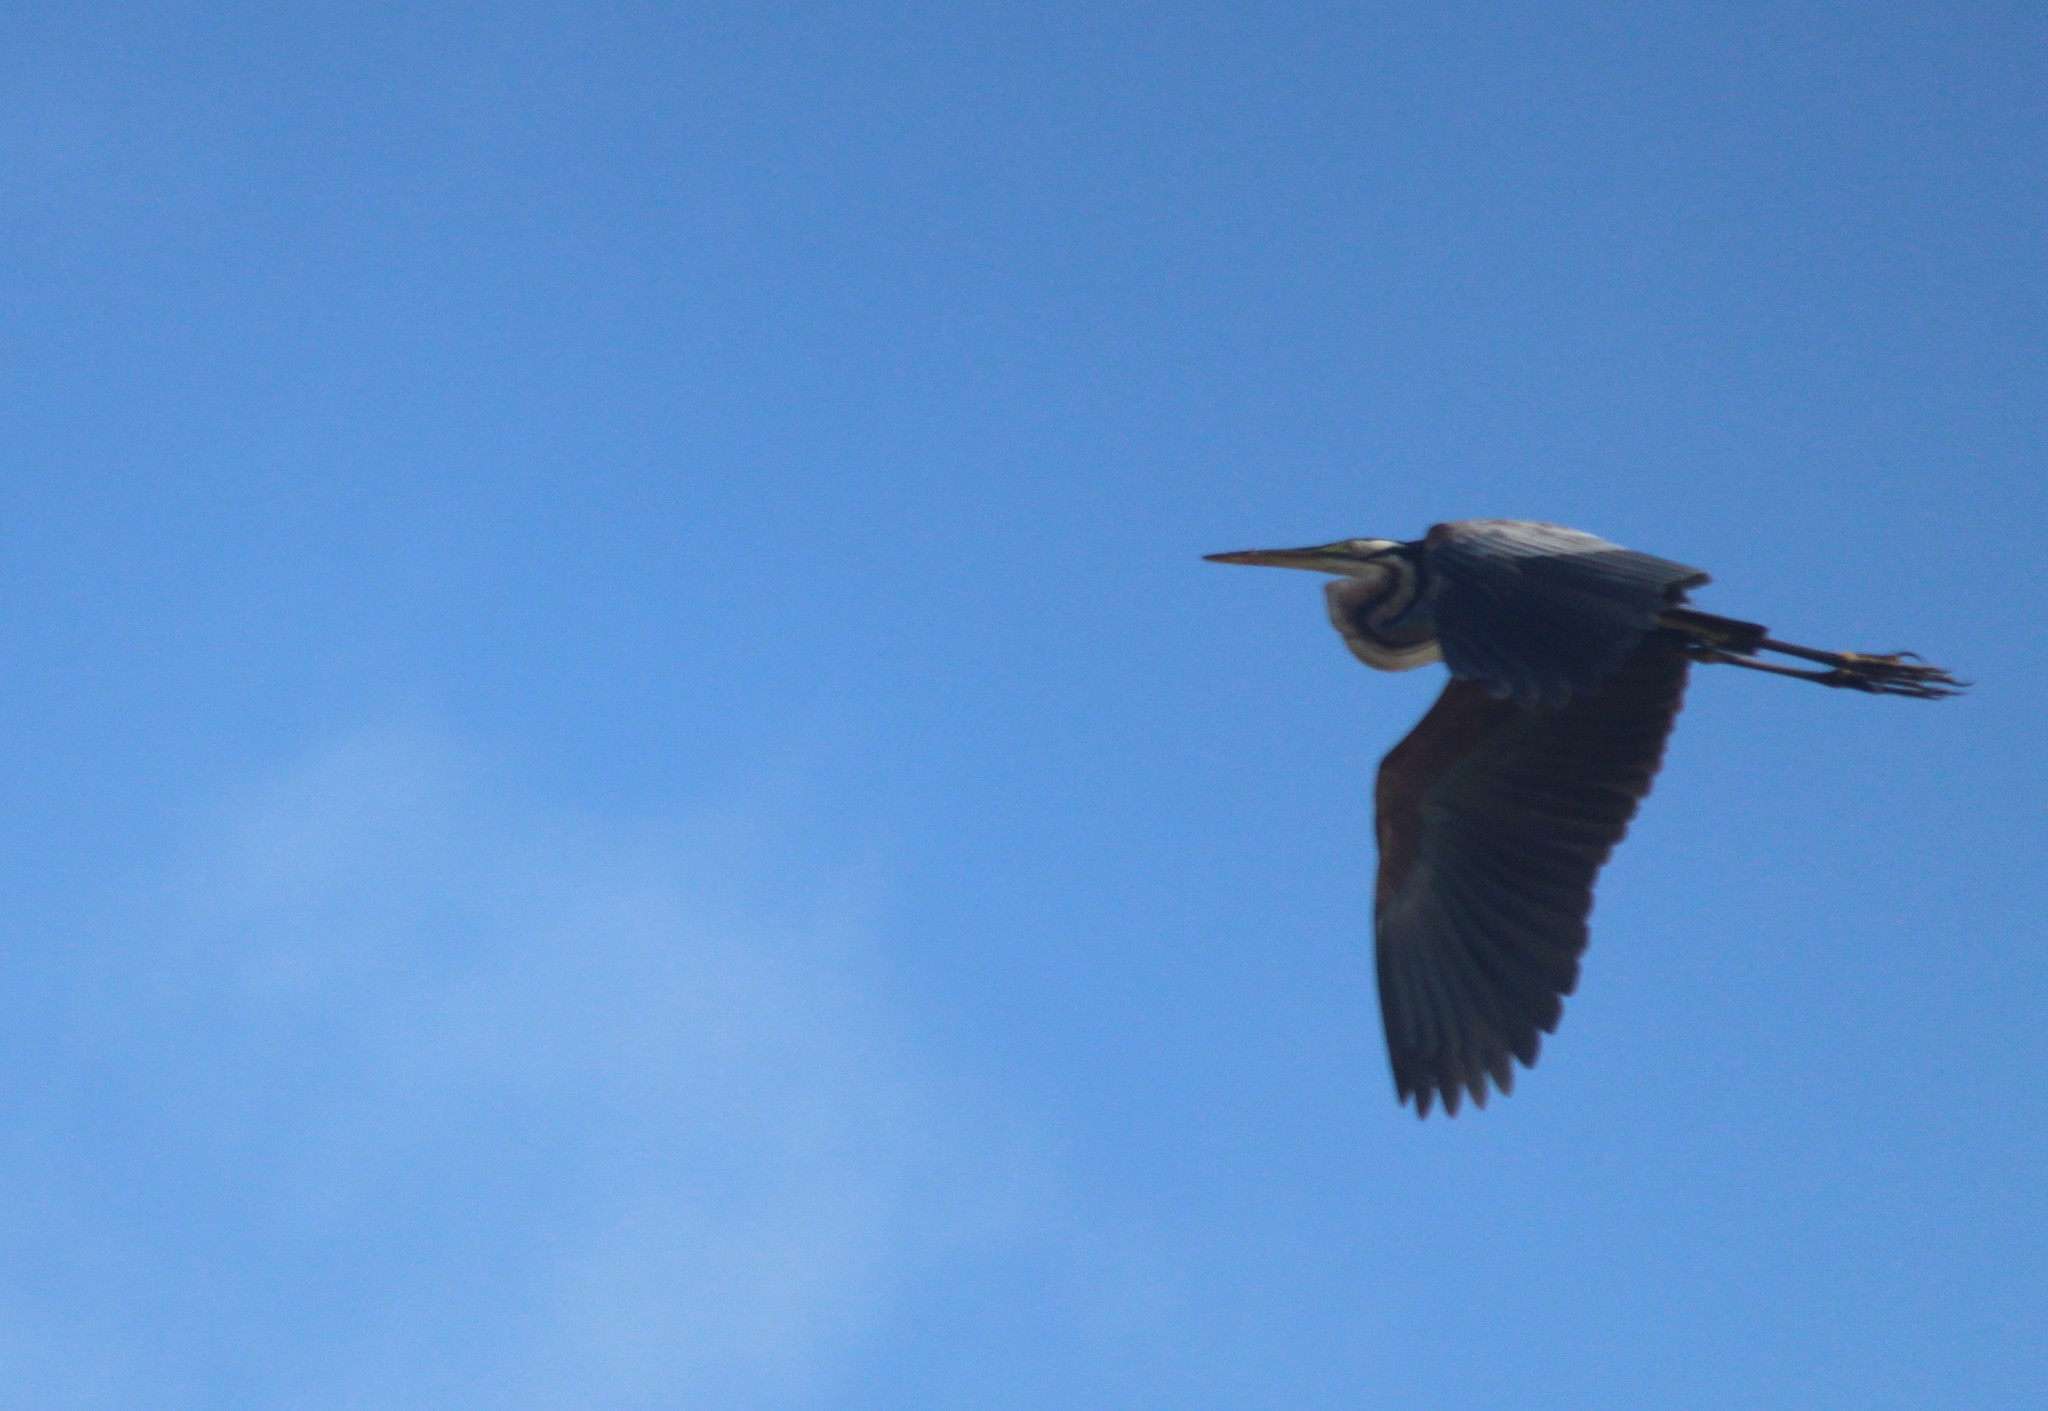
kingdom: Animalia
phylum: Chordata
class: Aves
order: Pelecaniformes
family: Ardeidae
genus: Ardea
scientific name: Ardea purpurea
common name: Purple heron
